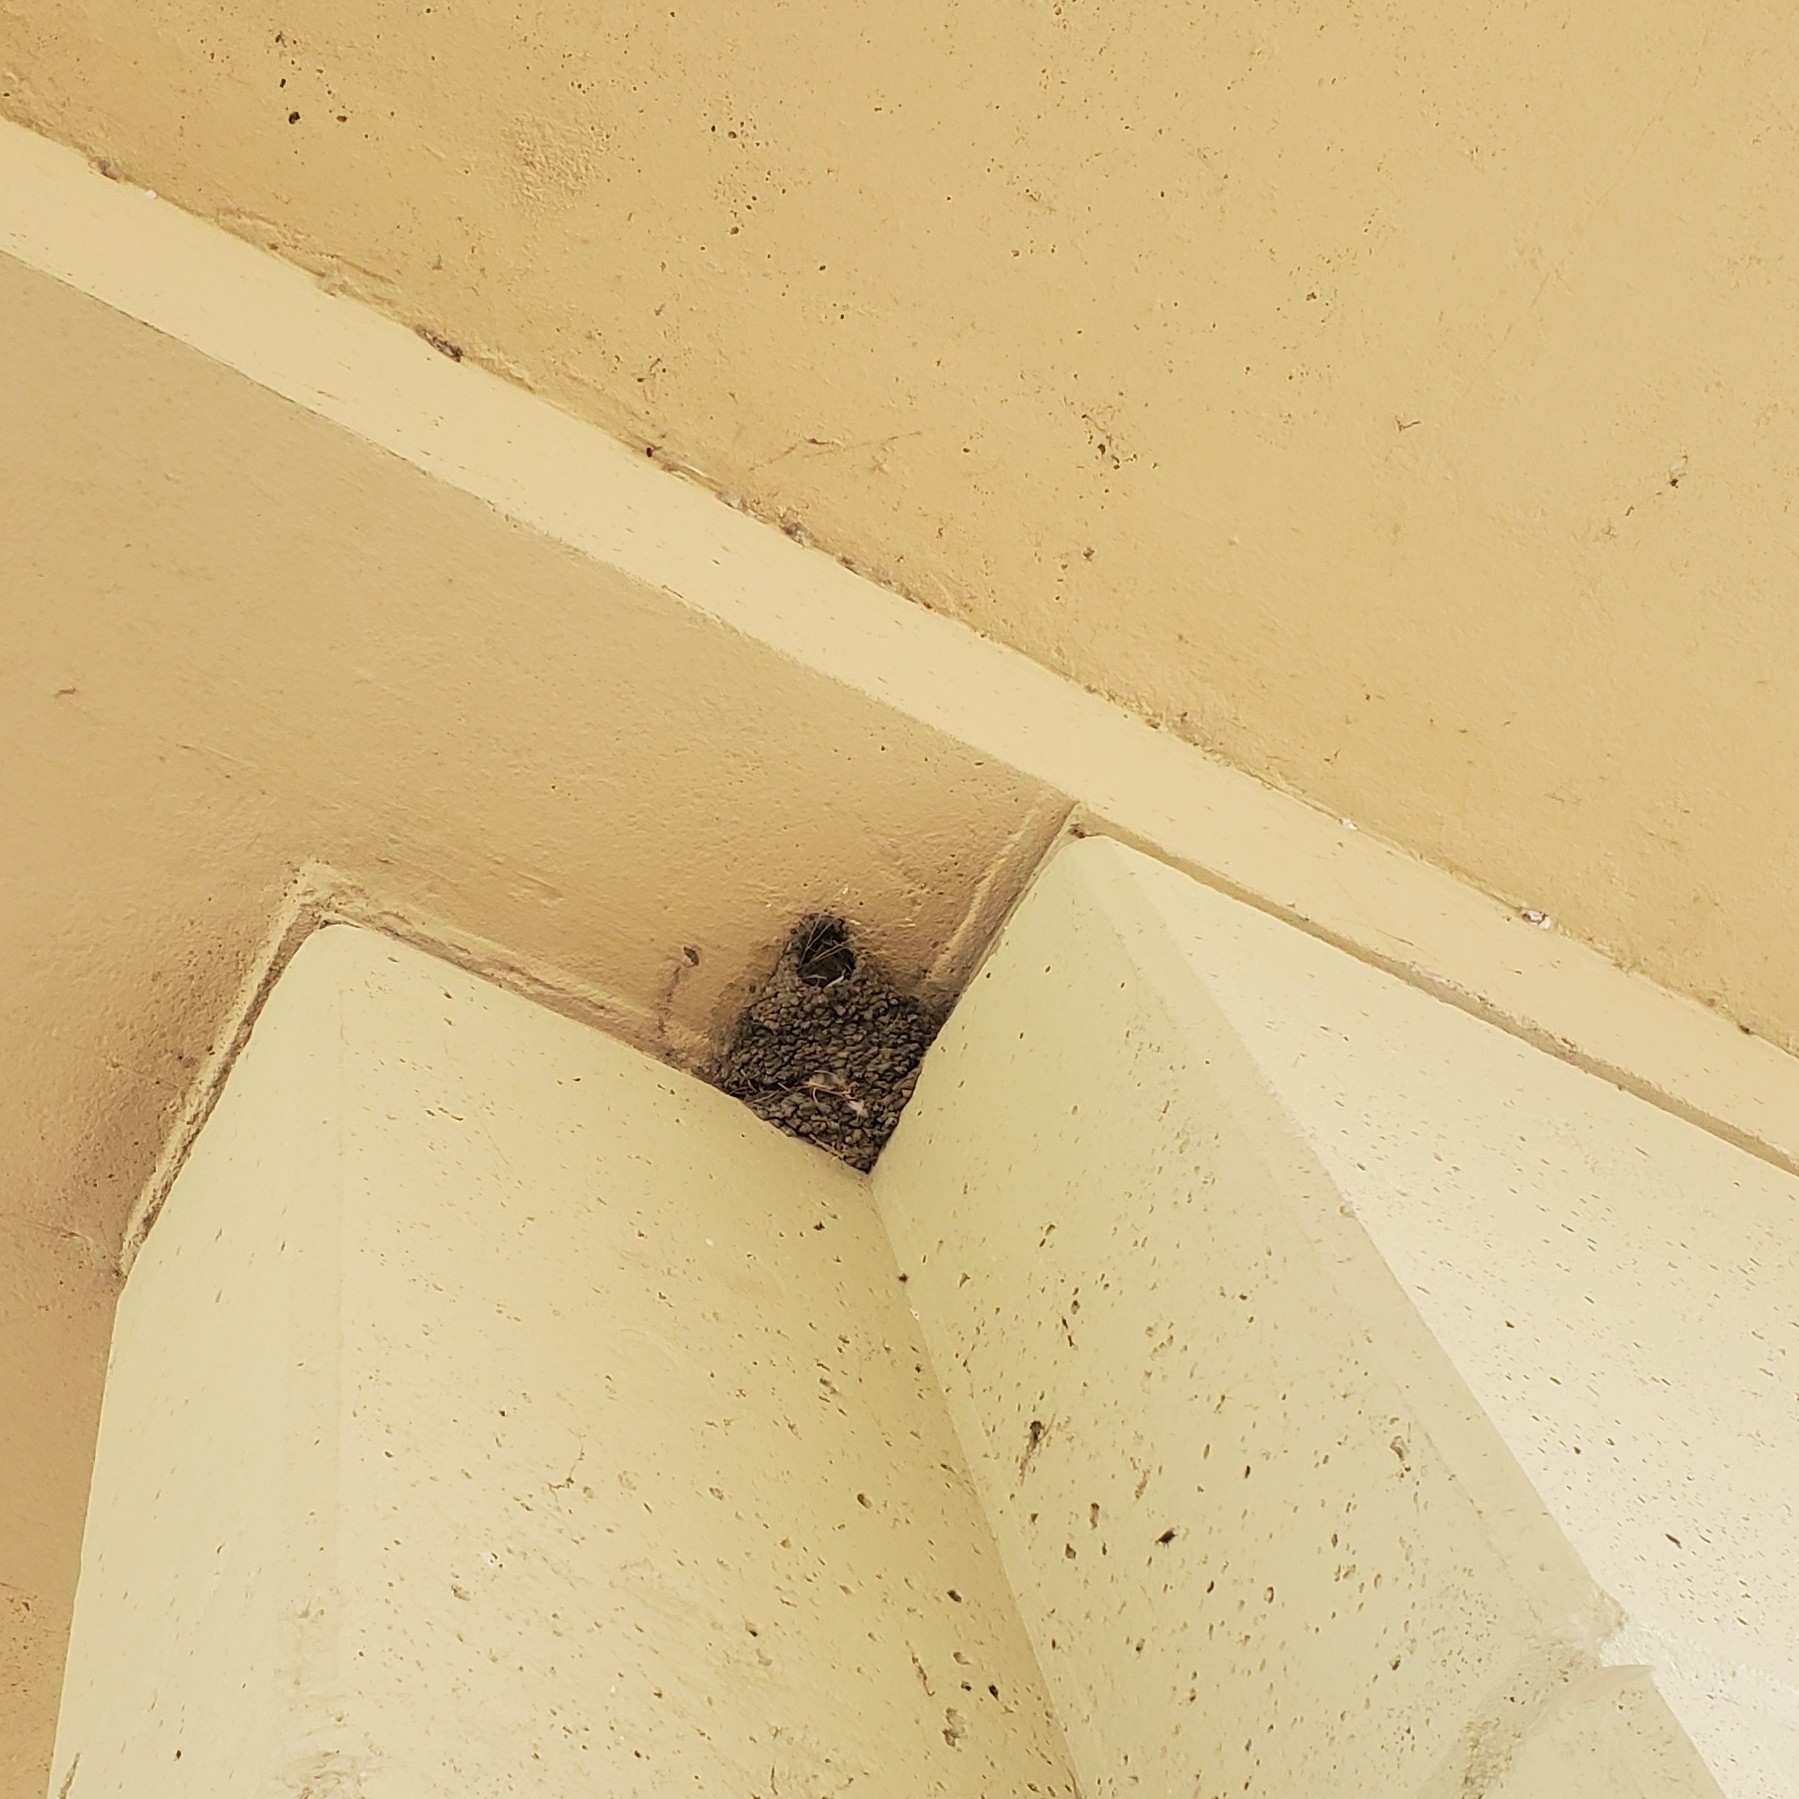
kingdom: Animalia
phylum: Chordata
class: Aves
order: Passeriformes
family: Hirundinidae
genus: Petrochelidon
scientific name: Petrochelidon pyrrhonota
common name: American cliff swallow
